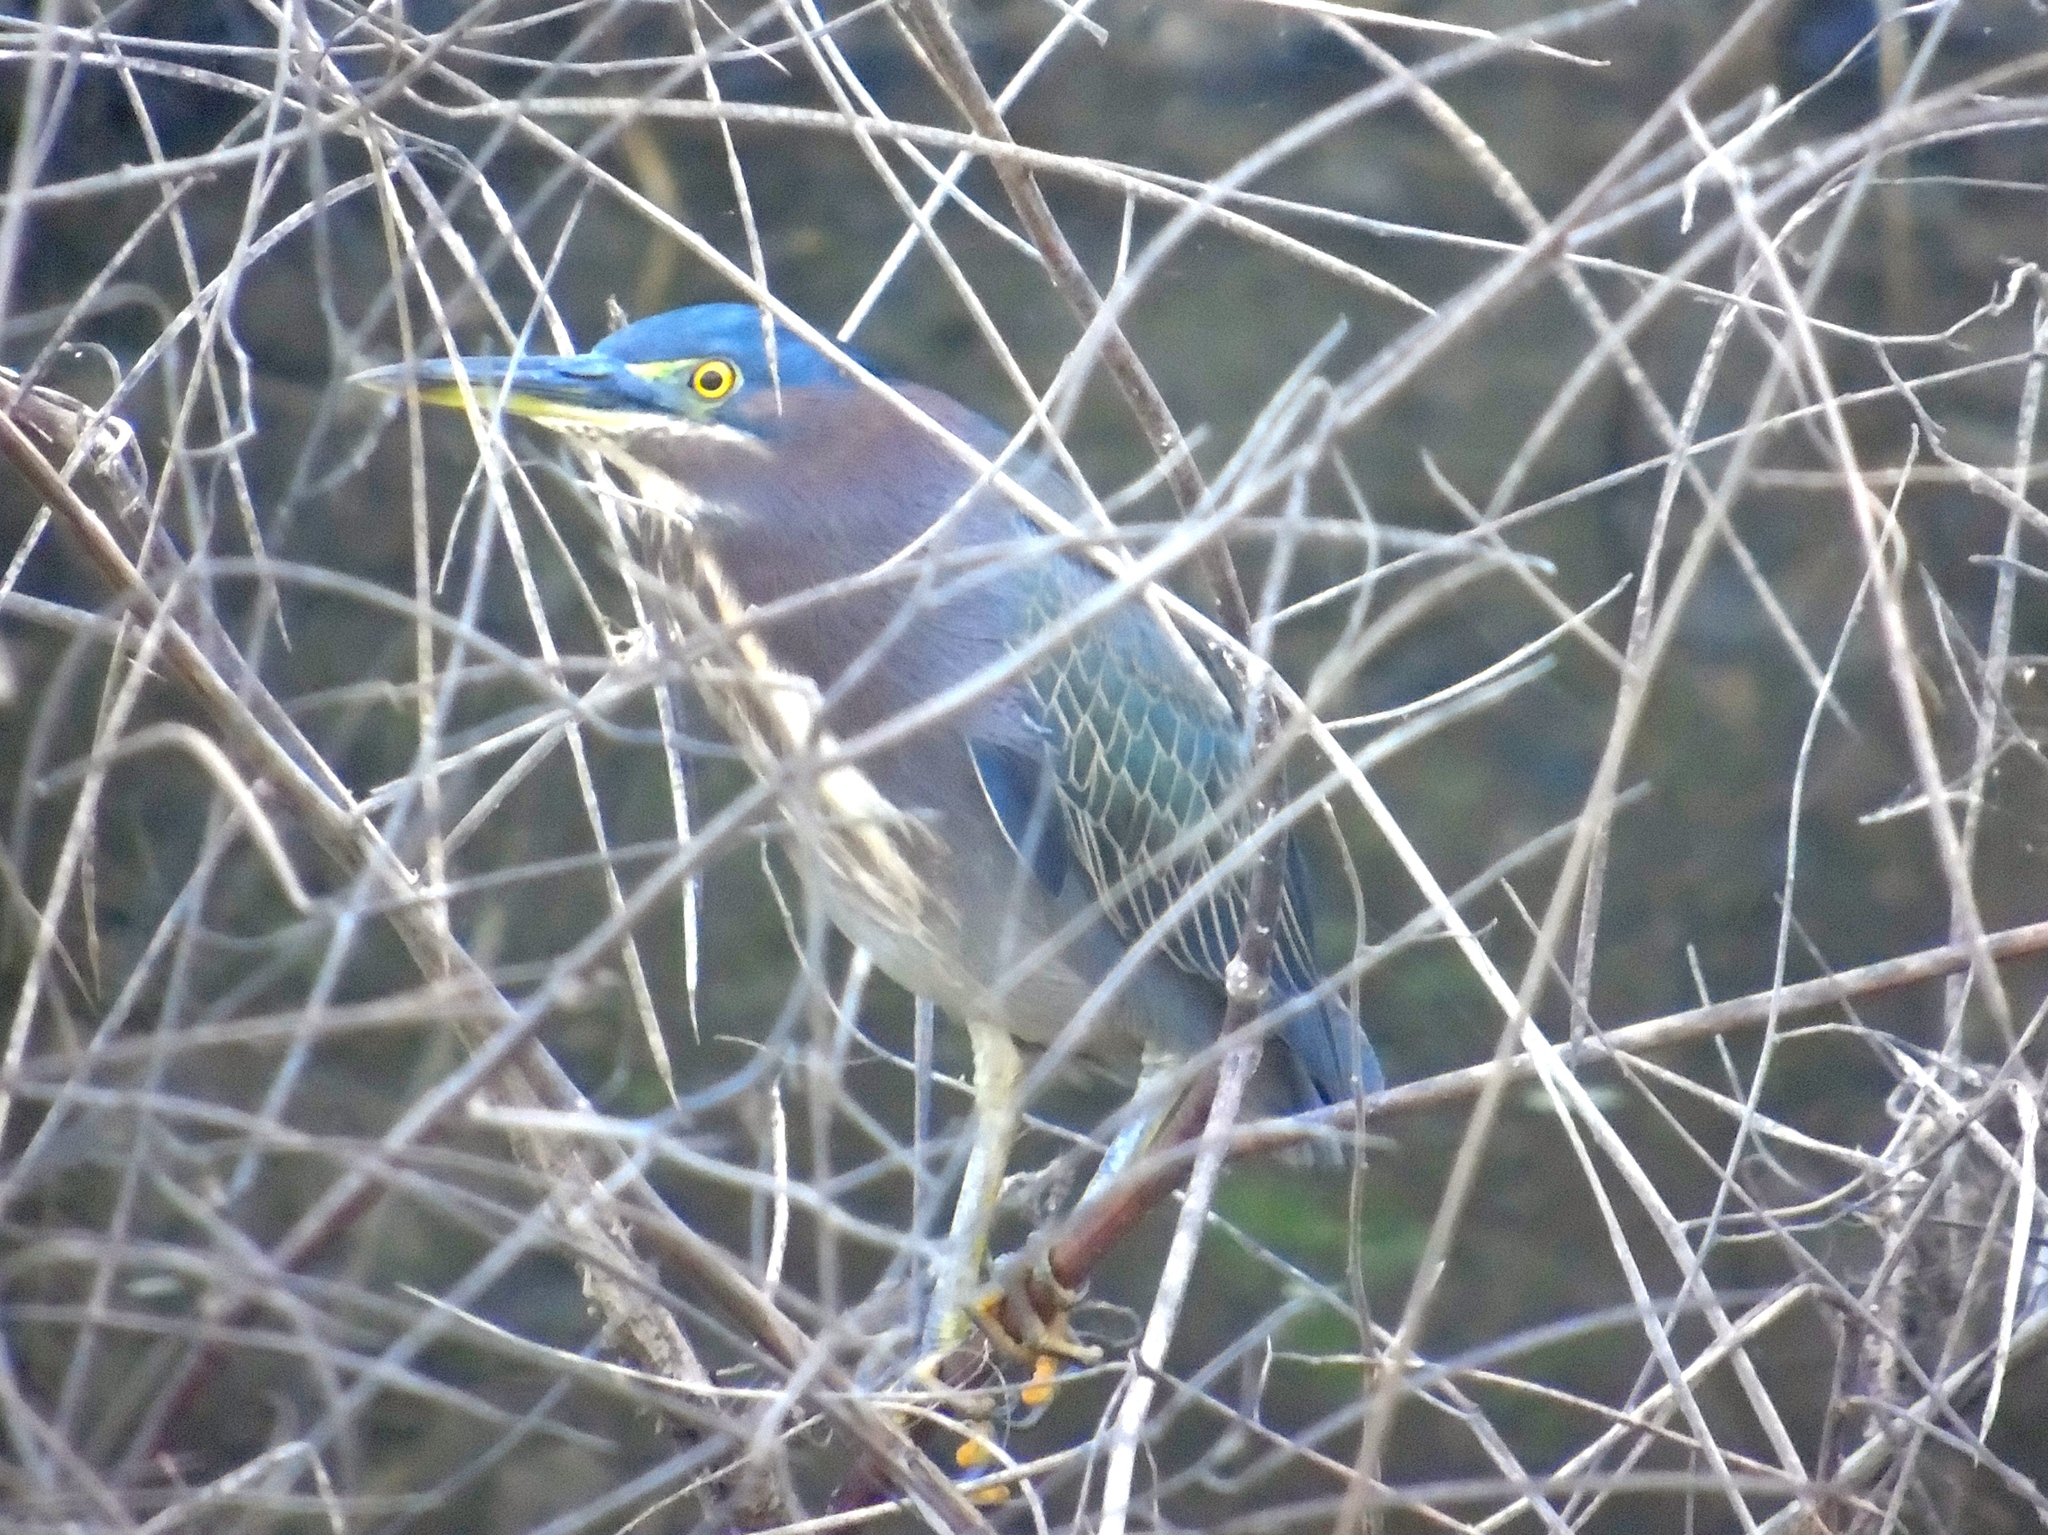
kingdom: Animalia
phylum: Chordata
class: Aves
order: Pelecaniformes
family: Ardeidae
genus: Butorides
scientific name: Butorides virescens
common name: Green heron
